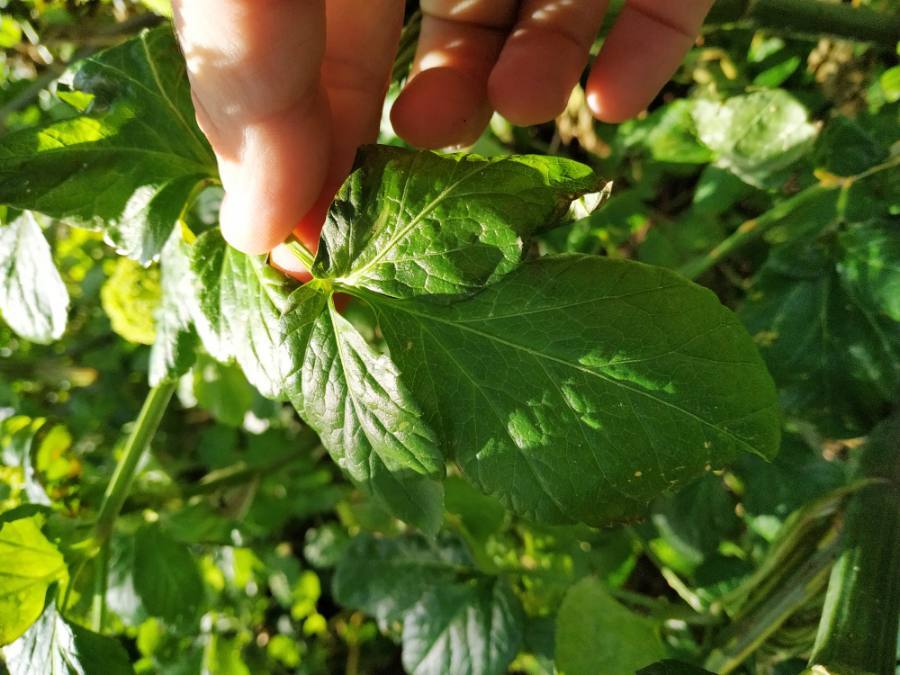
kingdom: Plantae
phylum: Tracheophyta
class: Magnoliopsida
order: Apiales
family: Apiaceae
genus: Smyrnium
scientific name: Smyrnium olusatrum
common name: Alexanders
